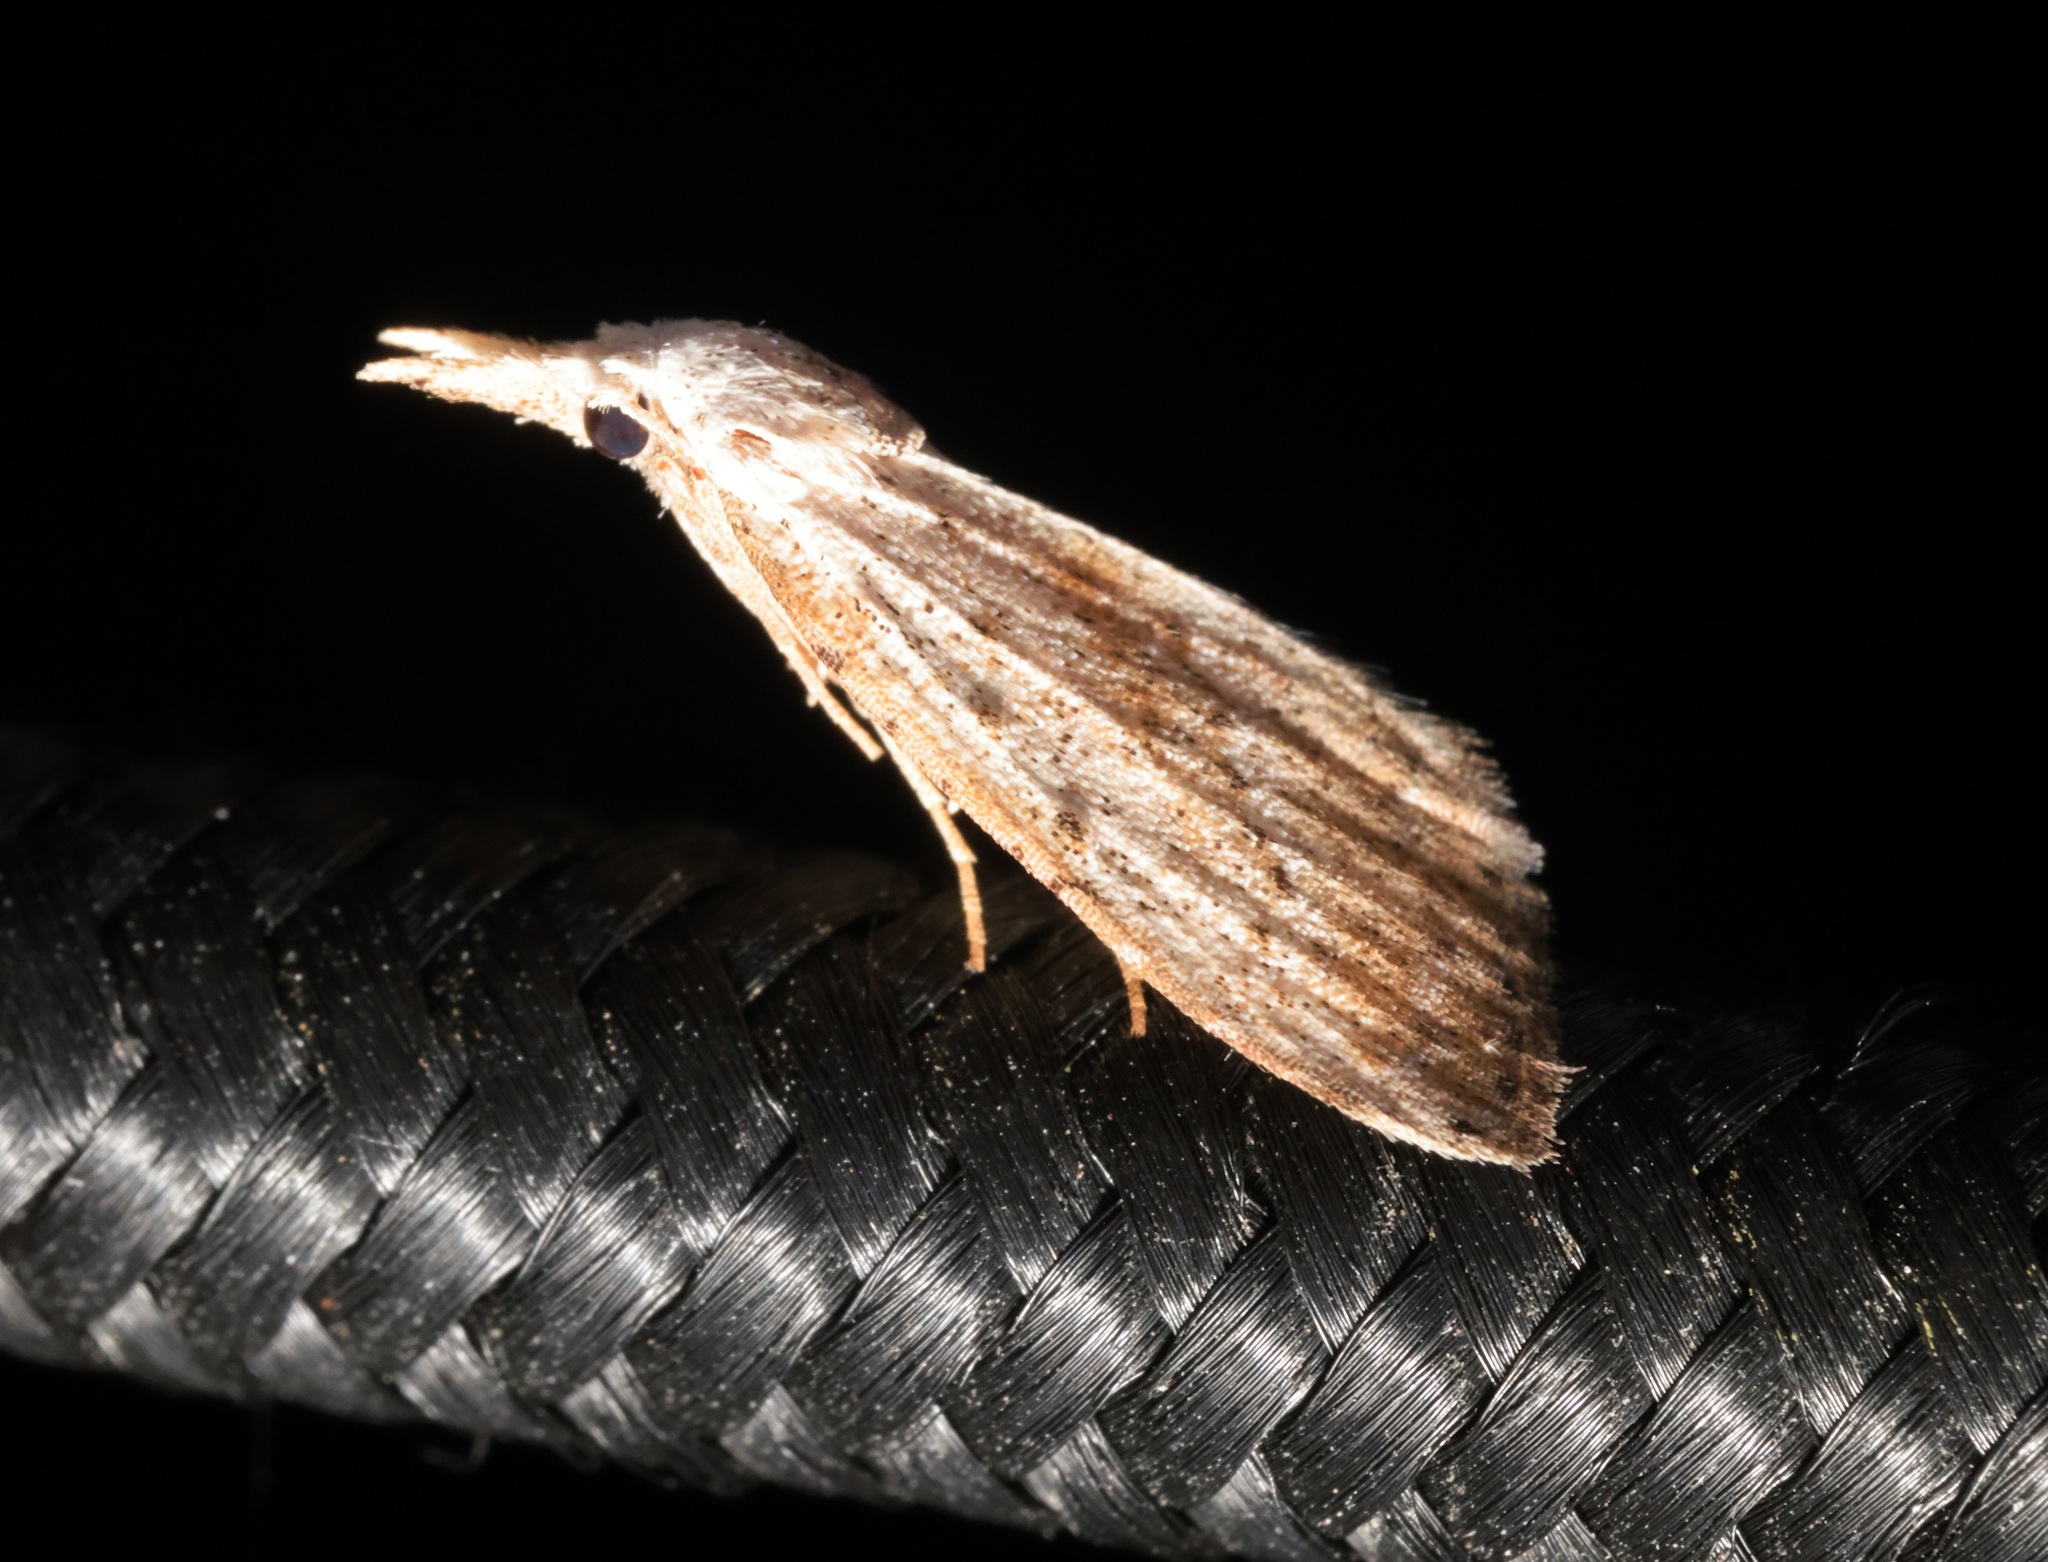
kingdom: Animalia
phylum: Arthropoda
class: Insecta
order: Lepidoptera
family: Nolidae
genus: Meganola
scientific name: Meganola brunellus
